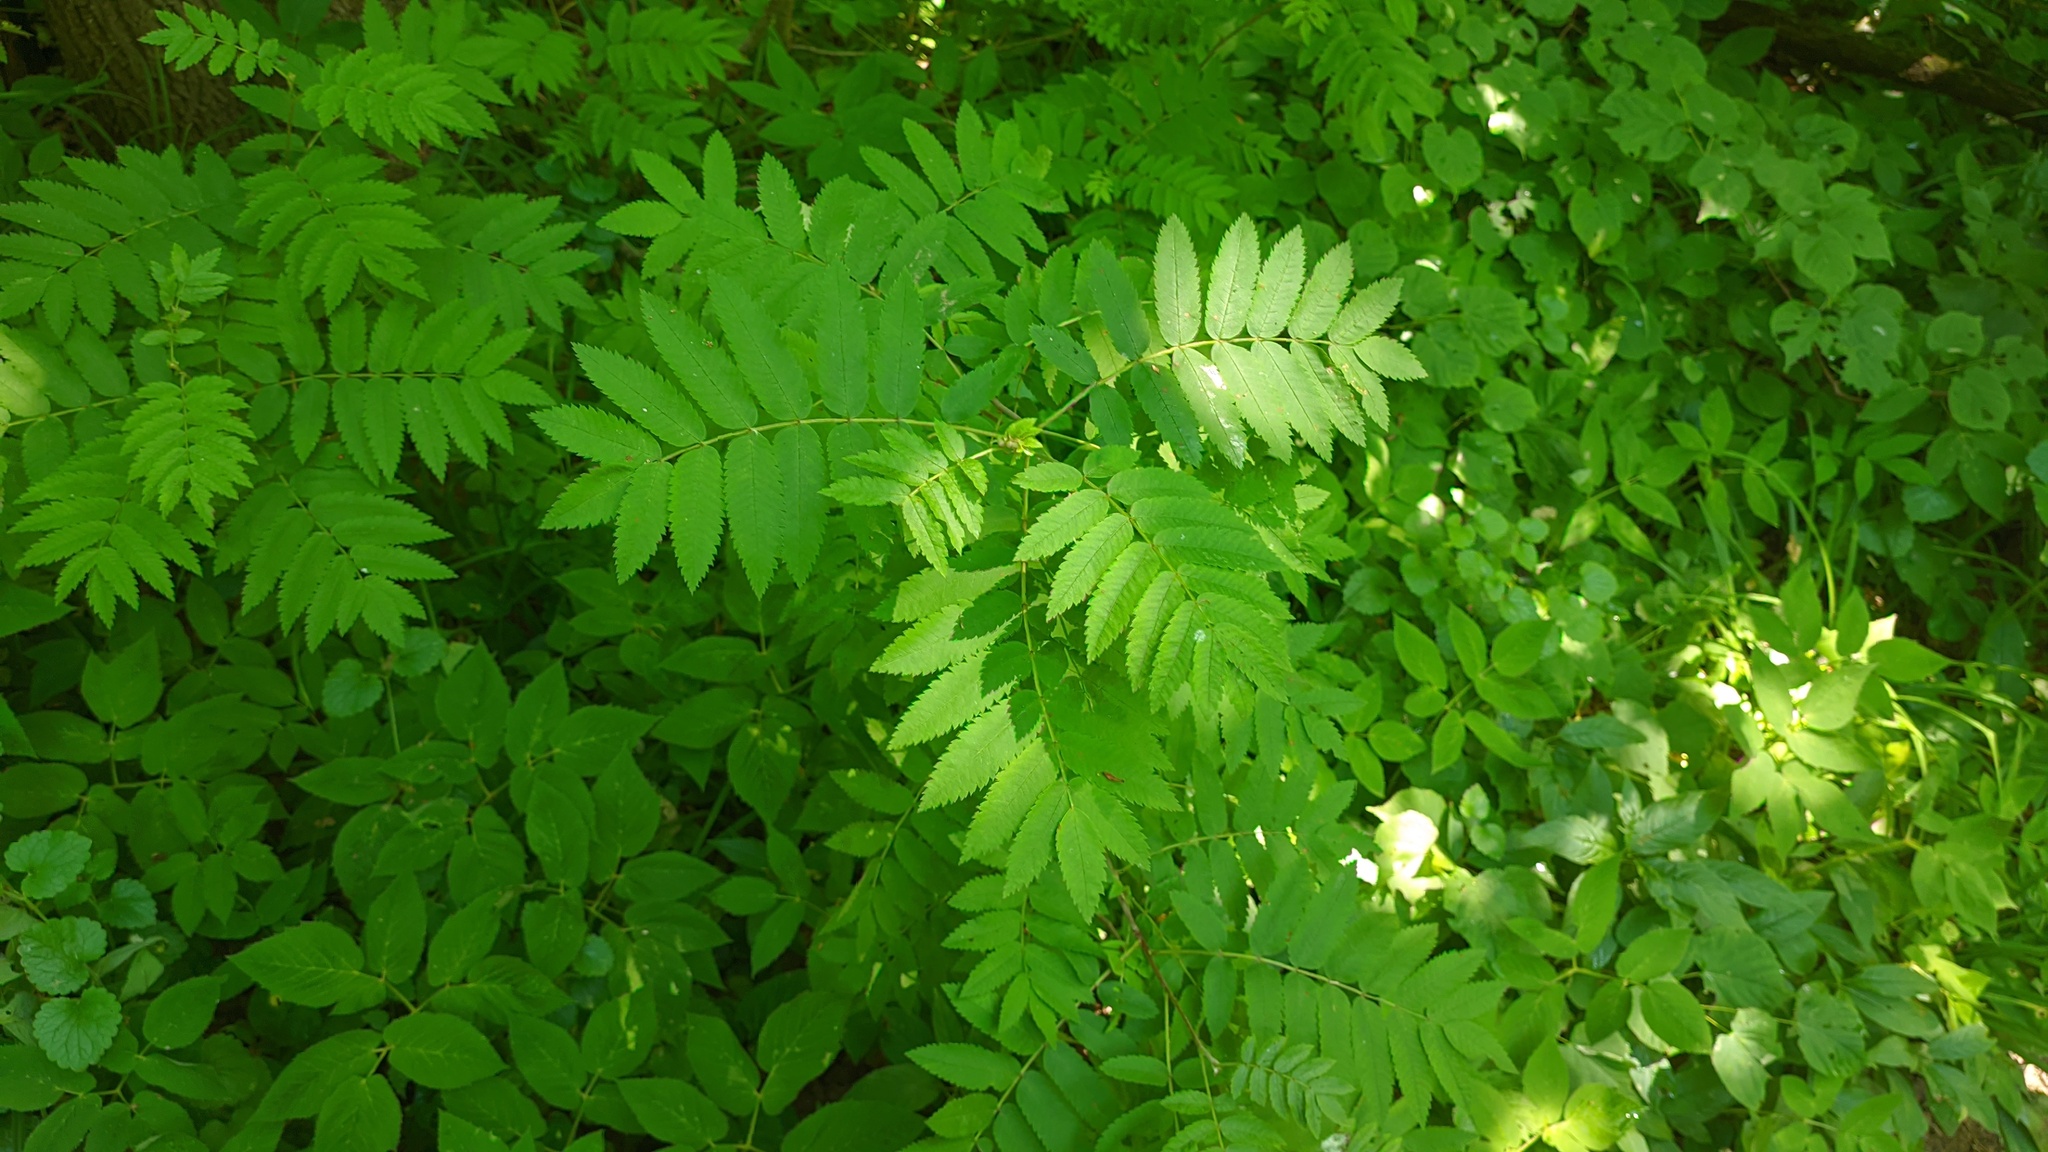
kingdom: Plantae
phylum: Tracheophyta
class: Magnoliopsida
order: Rosales
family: Rosaceae
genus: Sorbus
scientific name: Sorbus aucuparia
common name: Rowan
